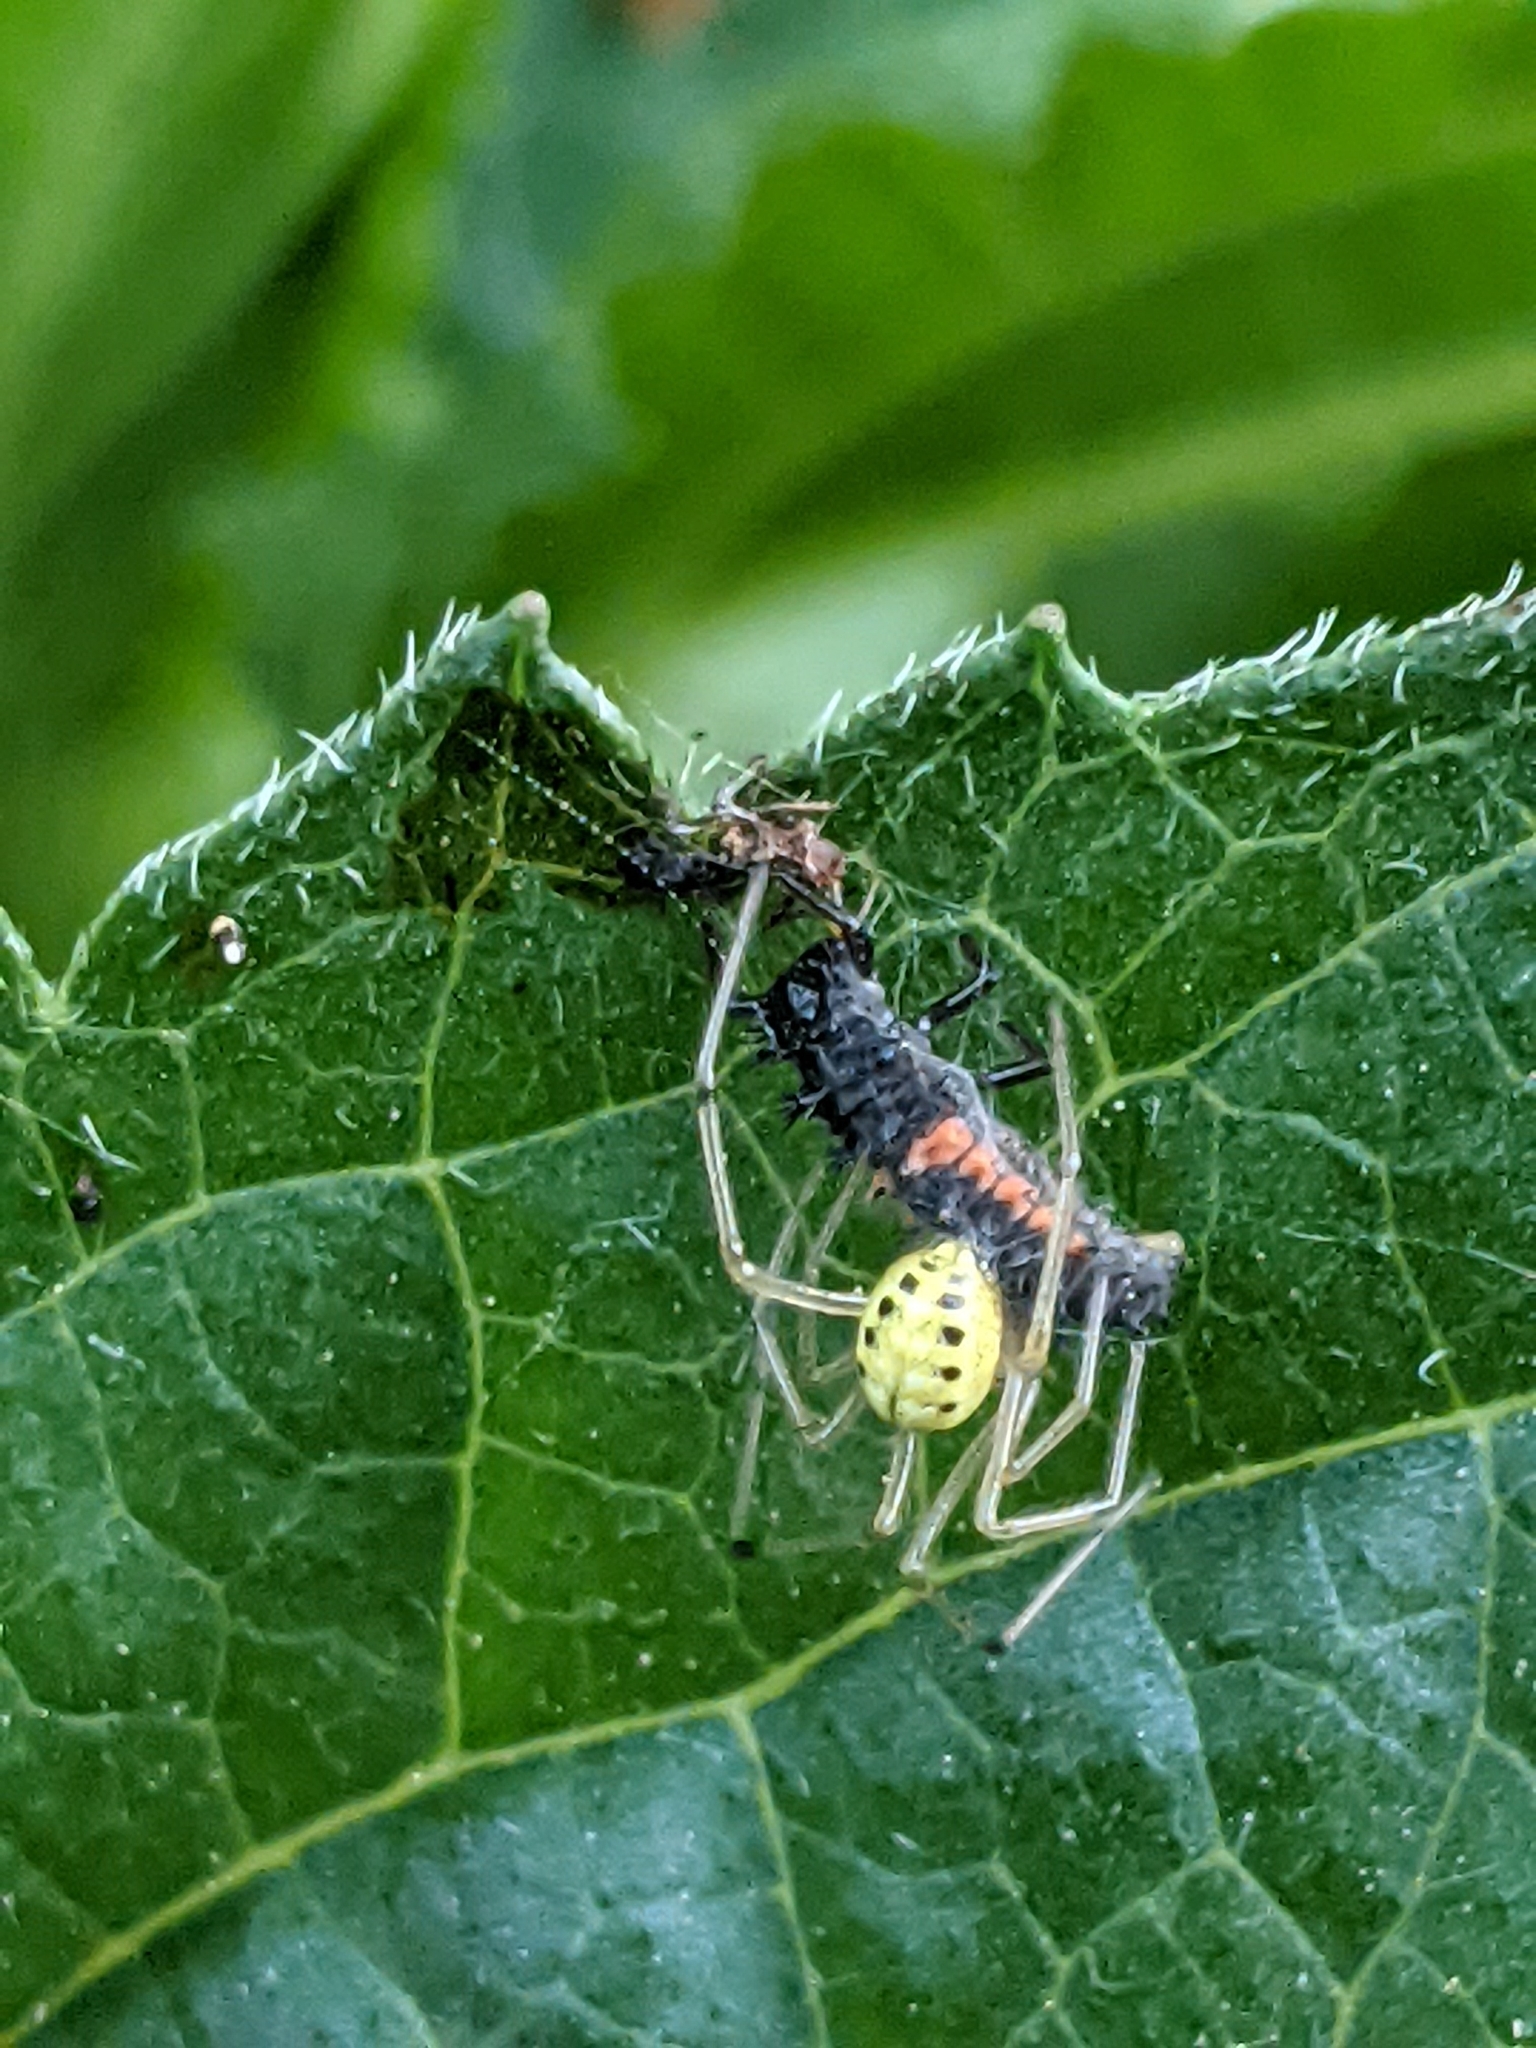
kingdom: Animalia
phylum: Arthropoda
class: Arachnida
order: Araneae
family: Theridiidae
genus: Enoplognatha
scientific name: Enoplognatha ovata
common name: Common candy-striped spider
